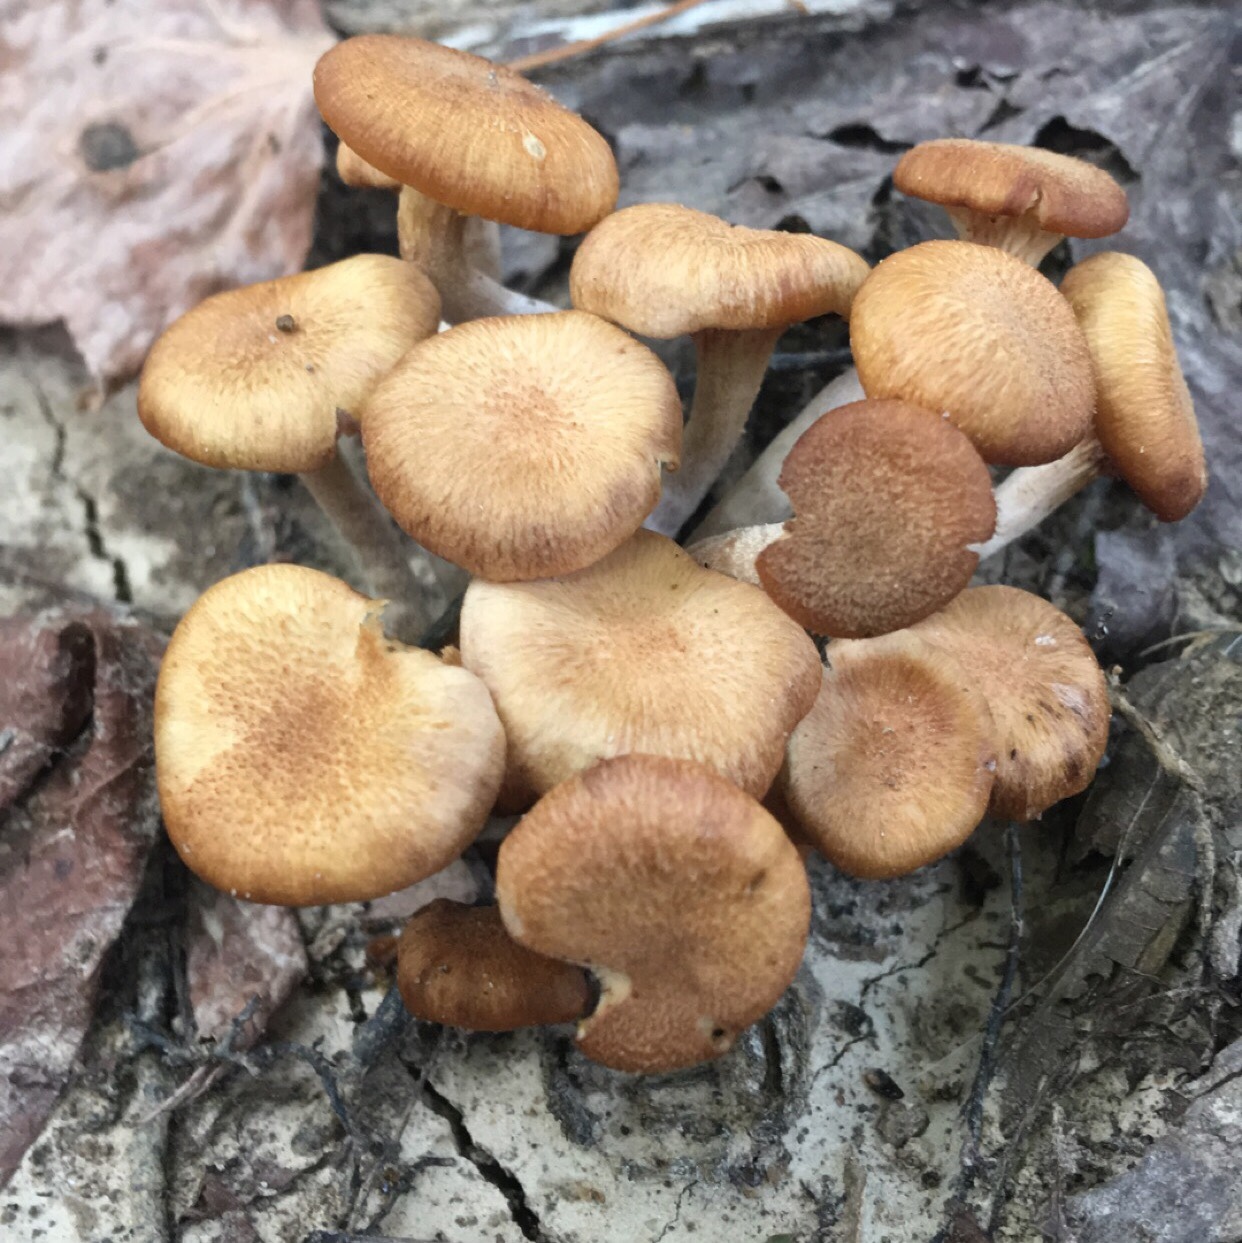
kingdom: Fungi
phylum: Basidiomycota
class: Agaricomycetes
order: Agaricales
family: Physalacriaceae
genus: Desarmillaria
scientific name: Desarmillaria caespitosa
